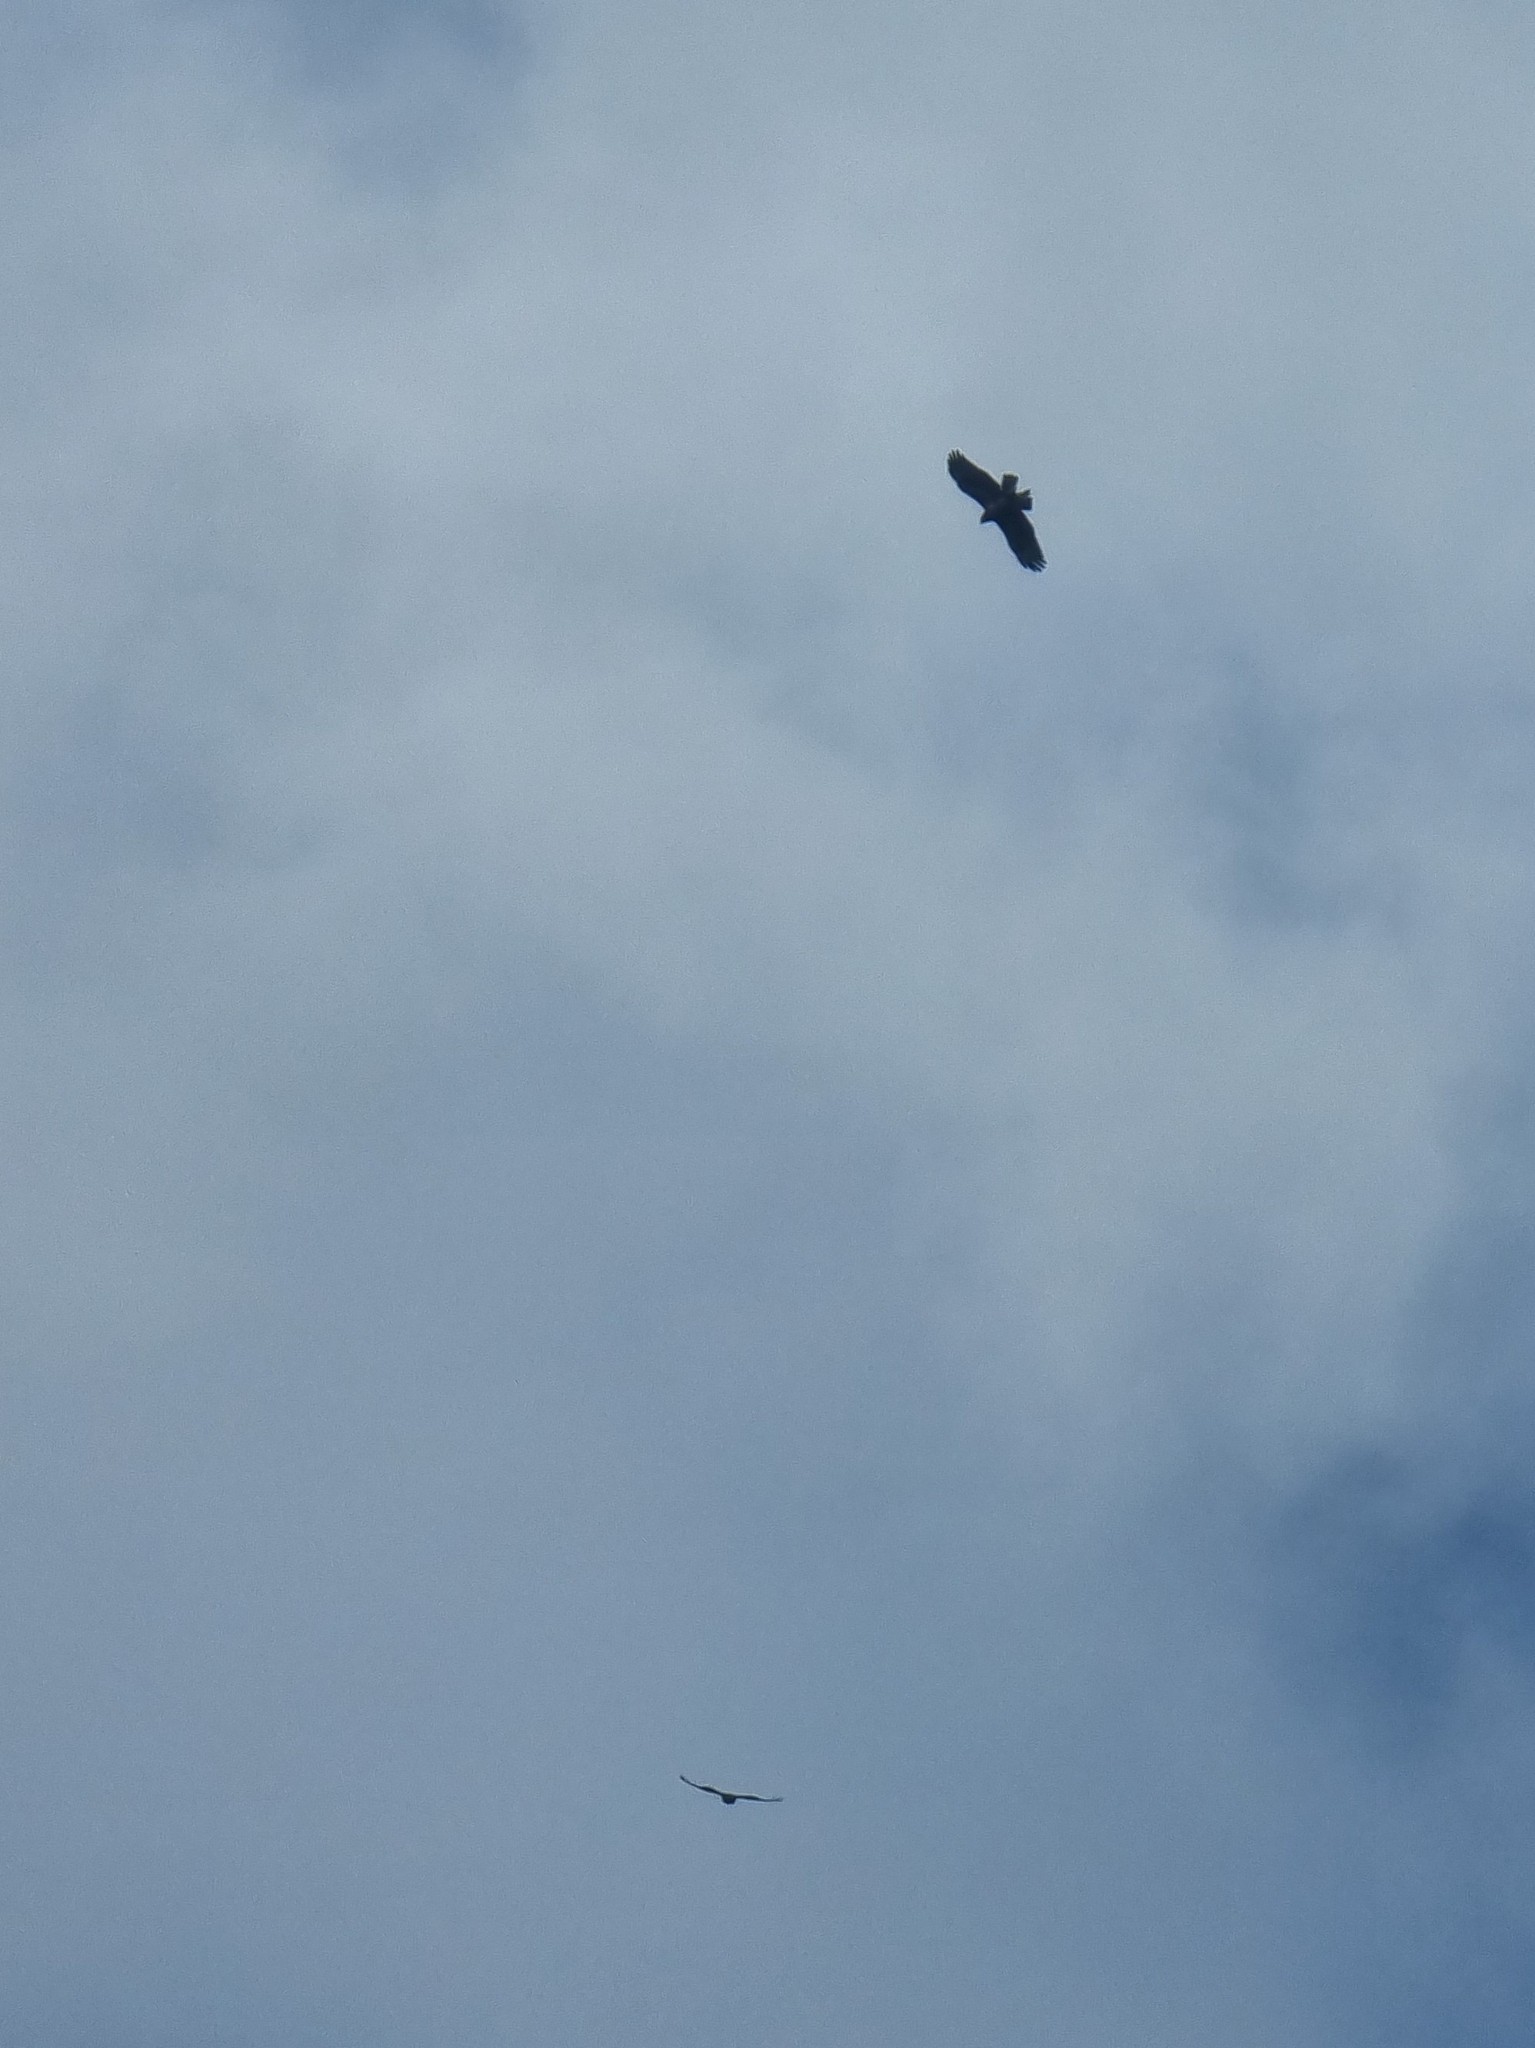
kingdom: Animalia
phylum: Chordata
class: Aves
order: Accipitriformes
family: Accipitridae
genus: Buteo
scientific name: Buteo buteo
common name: Common buzzard
